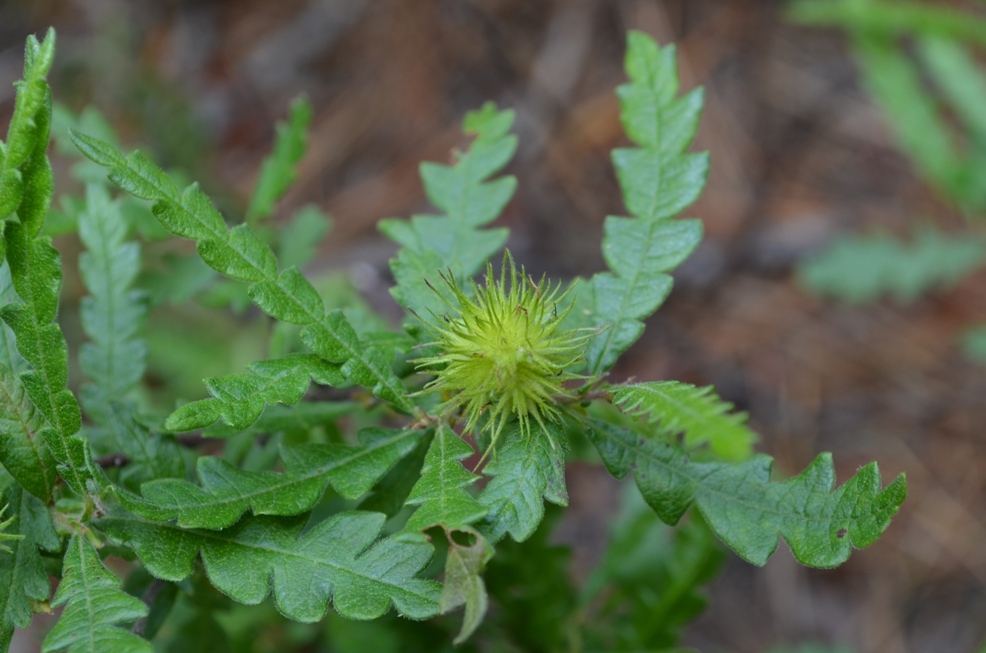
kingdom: Plantae
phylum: Tracheophyta
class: Magnoliopsida
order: Fagales
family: Myricaceae
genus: Comptonia
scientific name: Comptonia peregrina
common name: Sweet-fern
